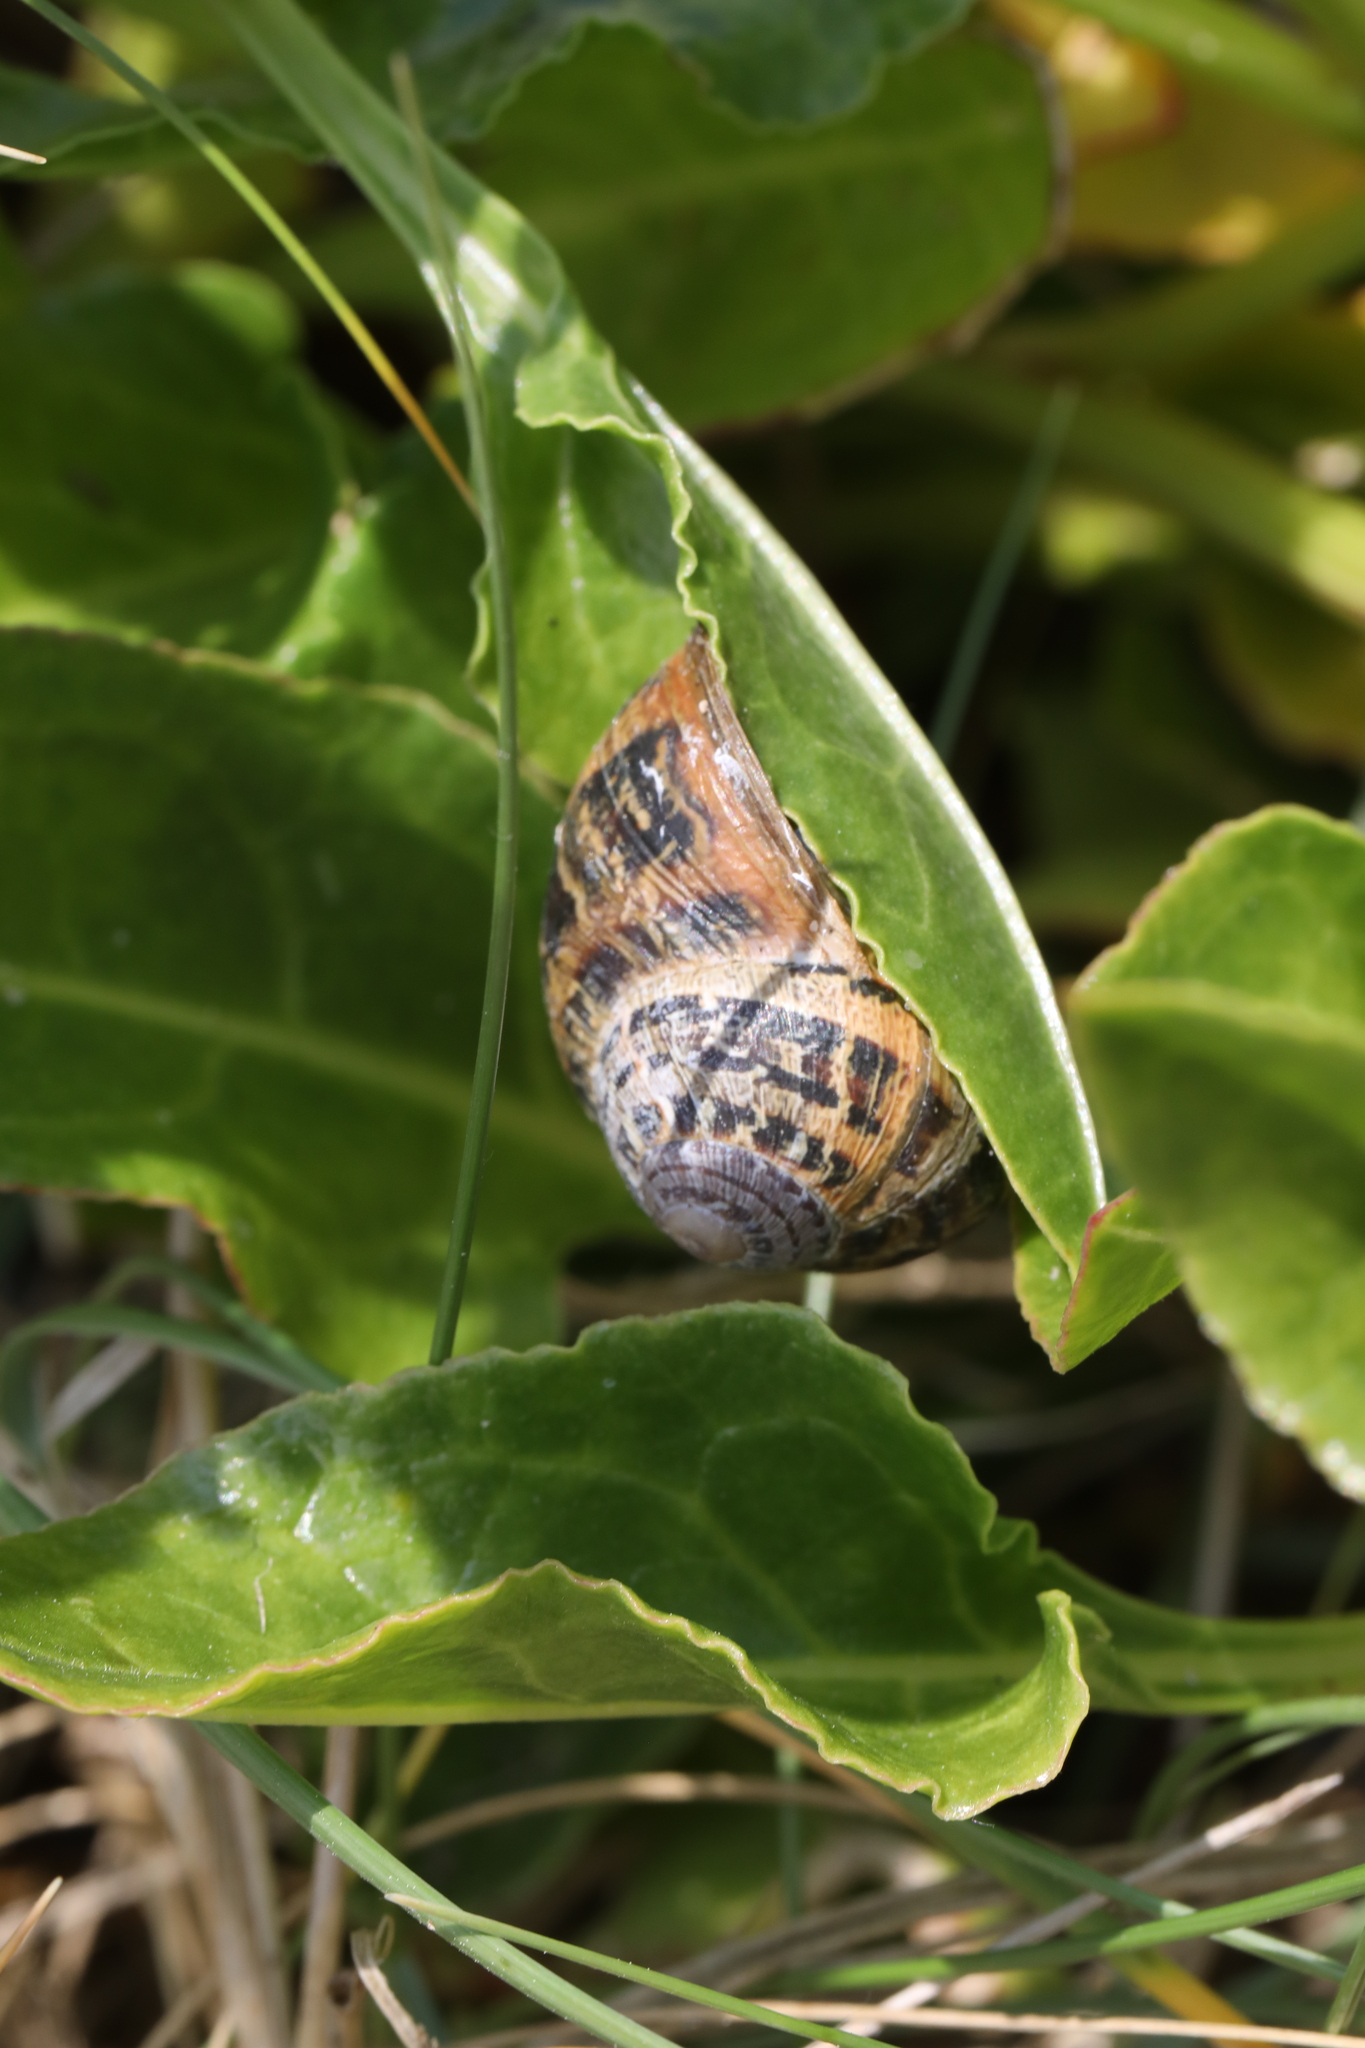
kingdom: Animalia
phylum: Mollusca
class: Gastropoda
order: Stylommatophora
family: Helicidae
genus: Cornu
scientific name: Cornu aspersum
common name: Brown garden snail
